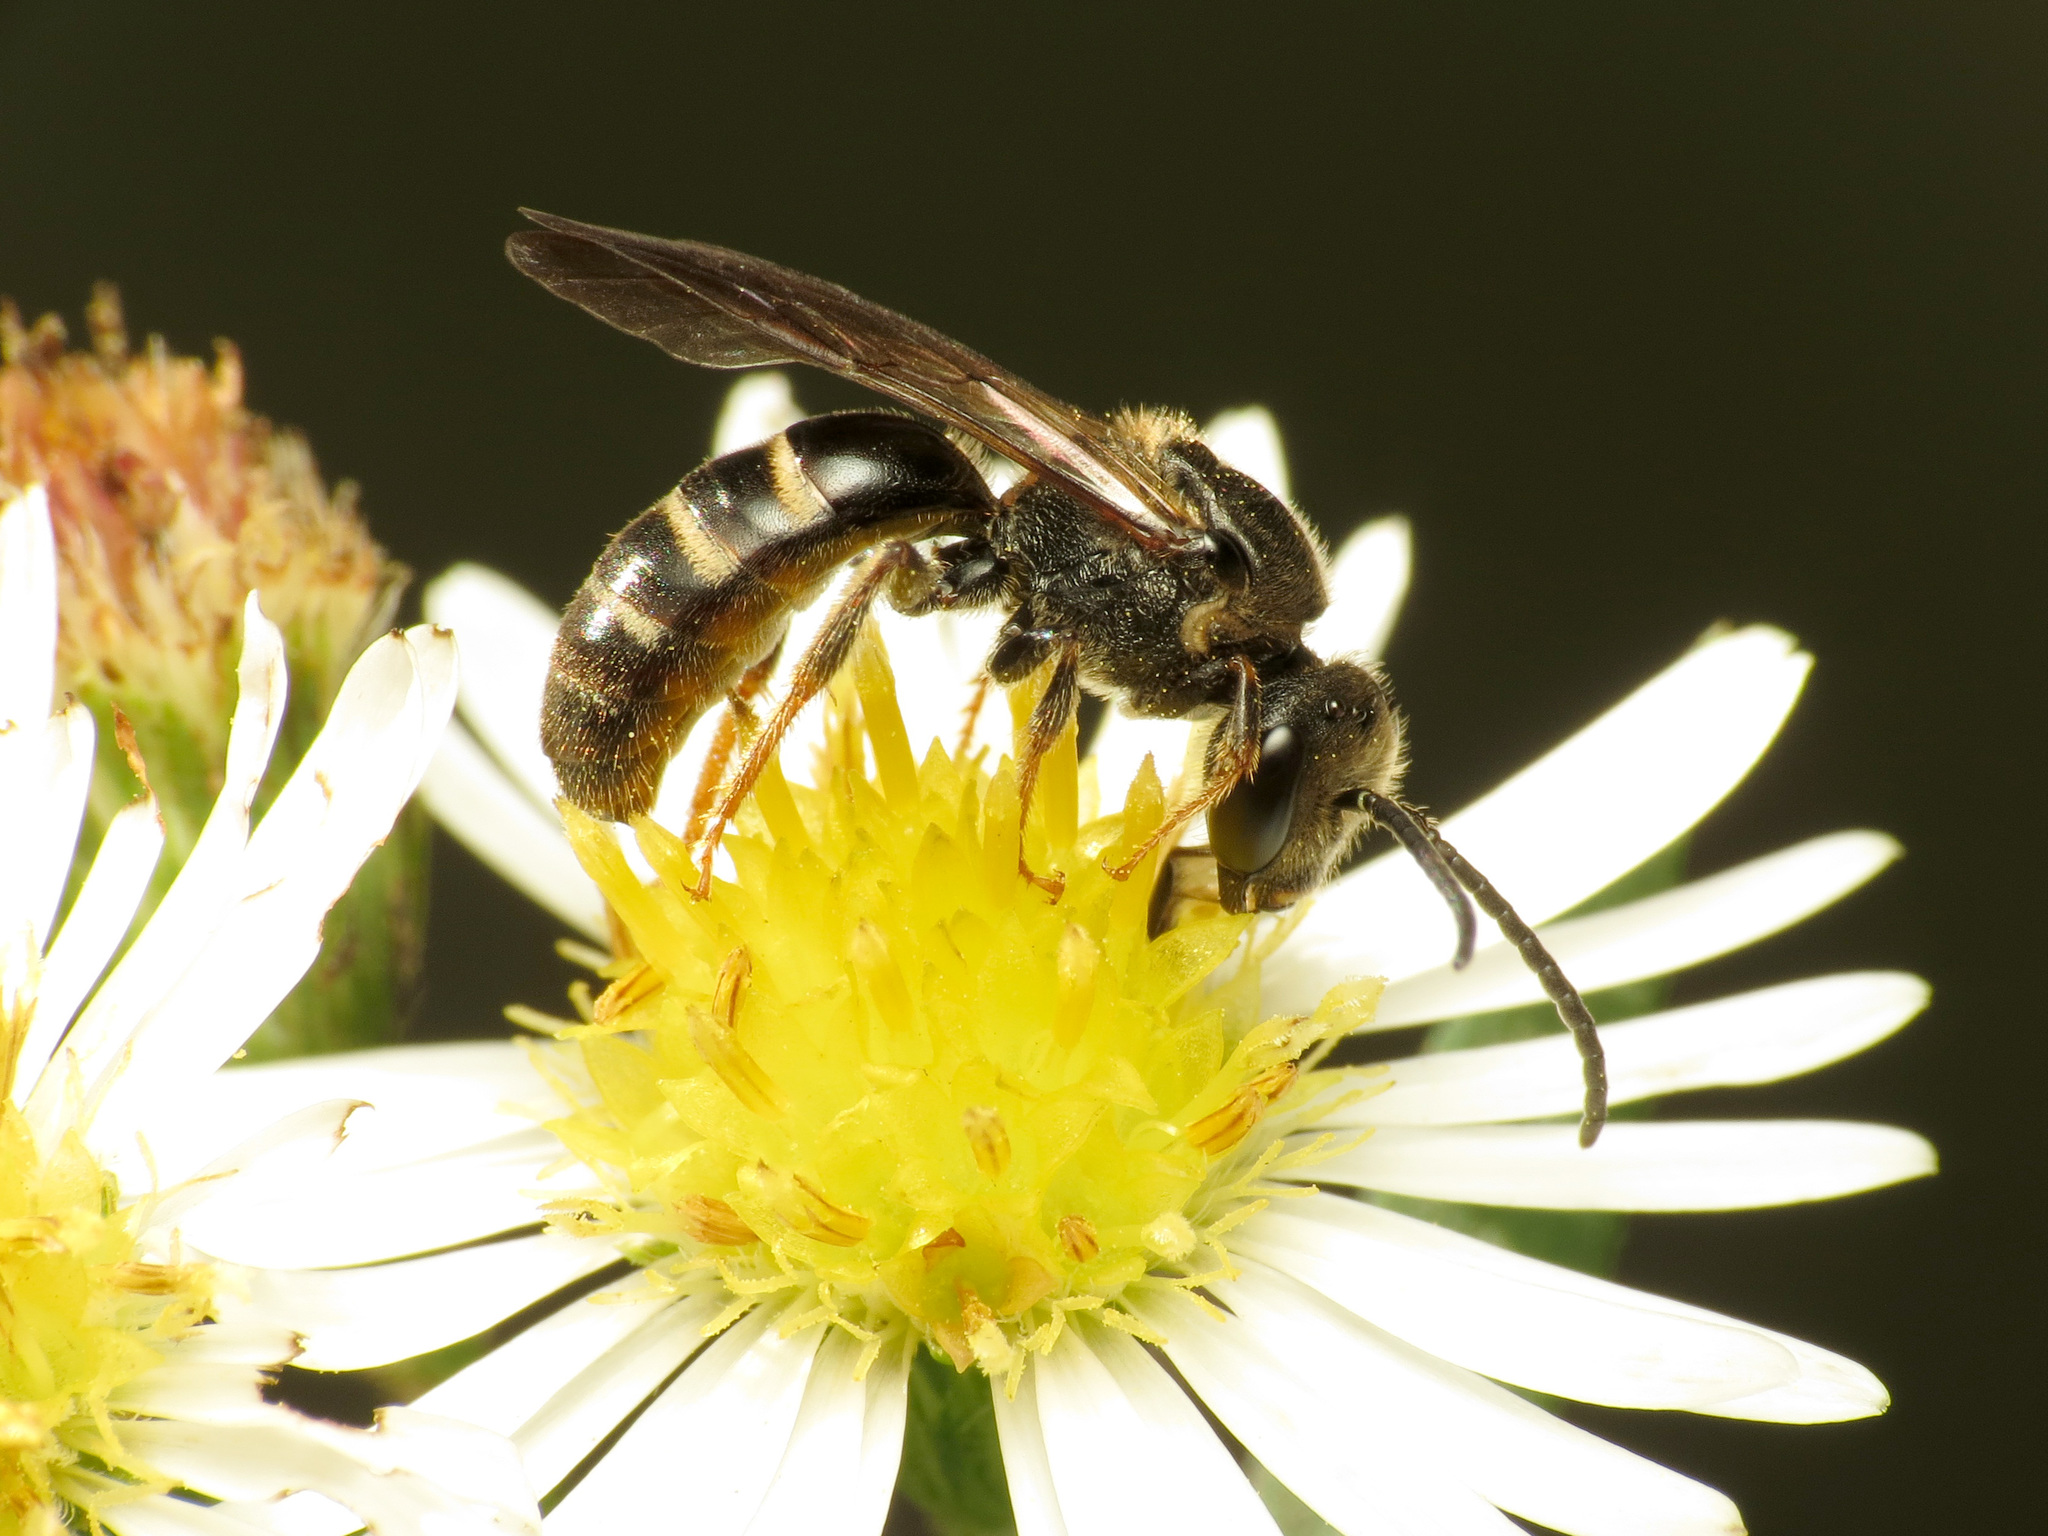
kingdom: Animalia
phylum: Arthropoda
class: Insecta
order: Hymenoptera
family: Halictidae
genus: Lasioglossum
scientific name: Lasioglossum fuscipenne
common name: Brown-winged sweat bee
